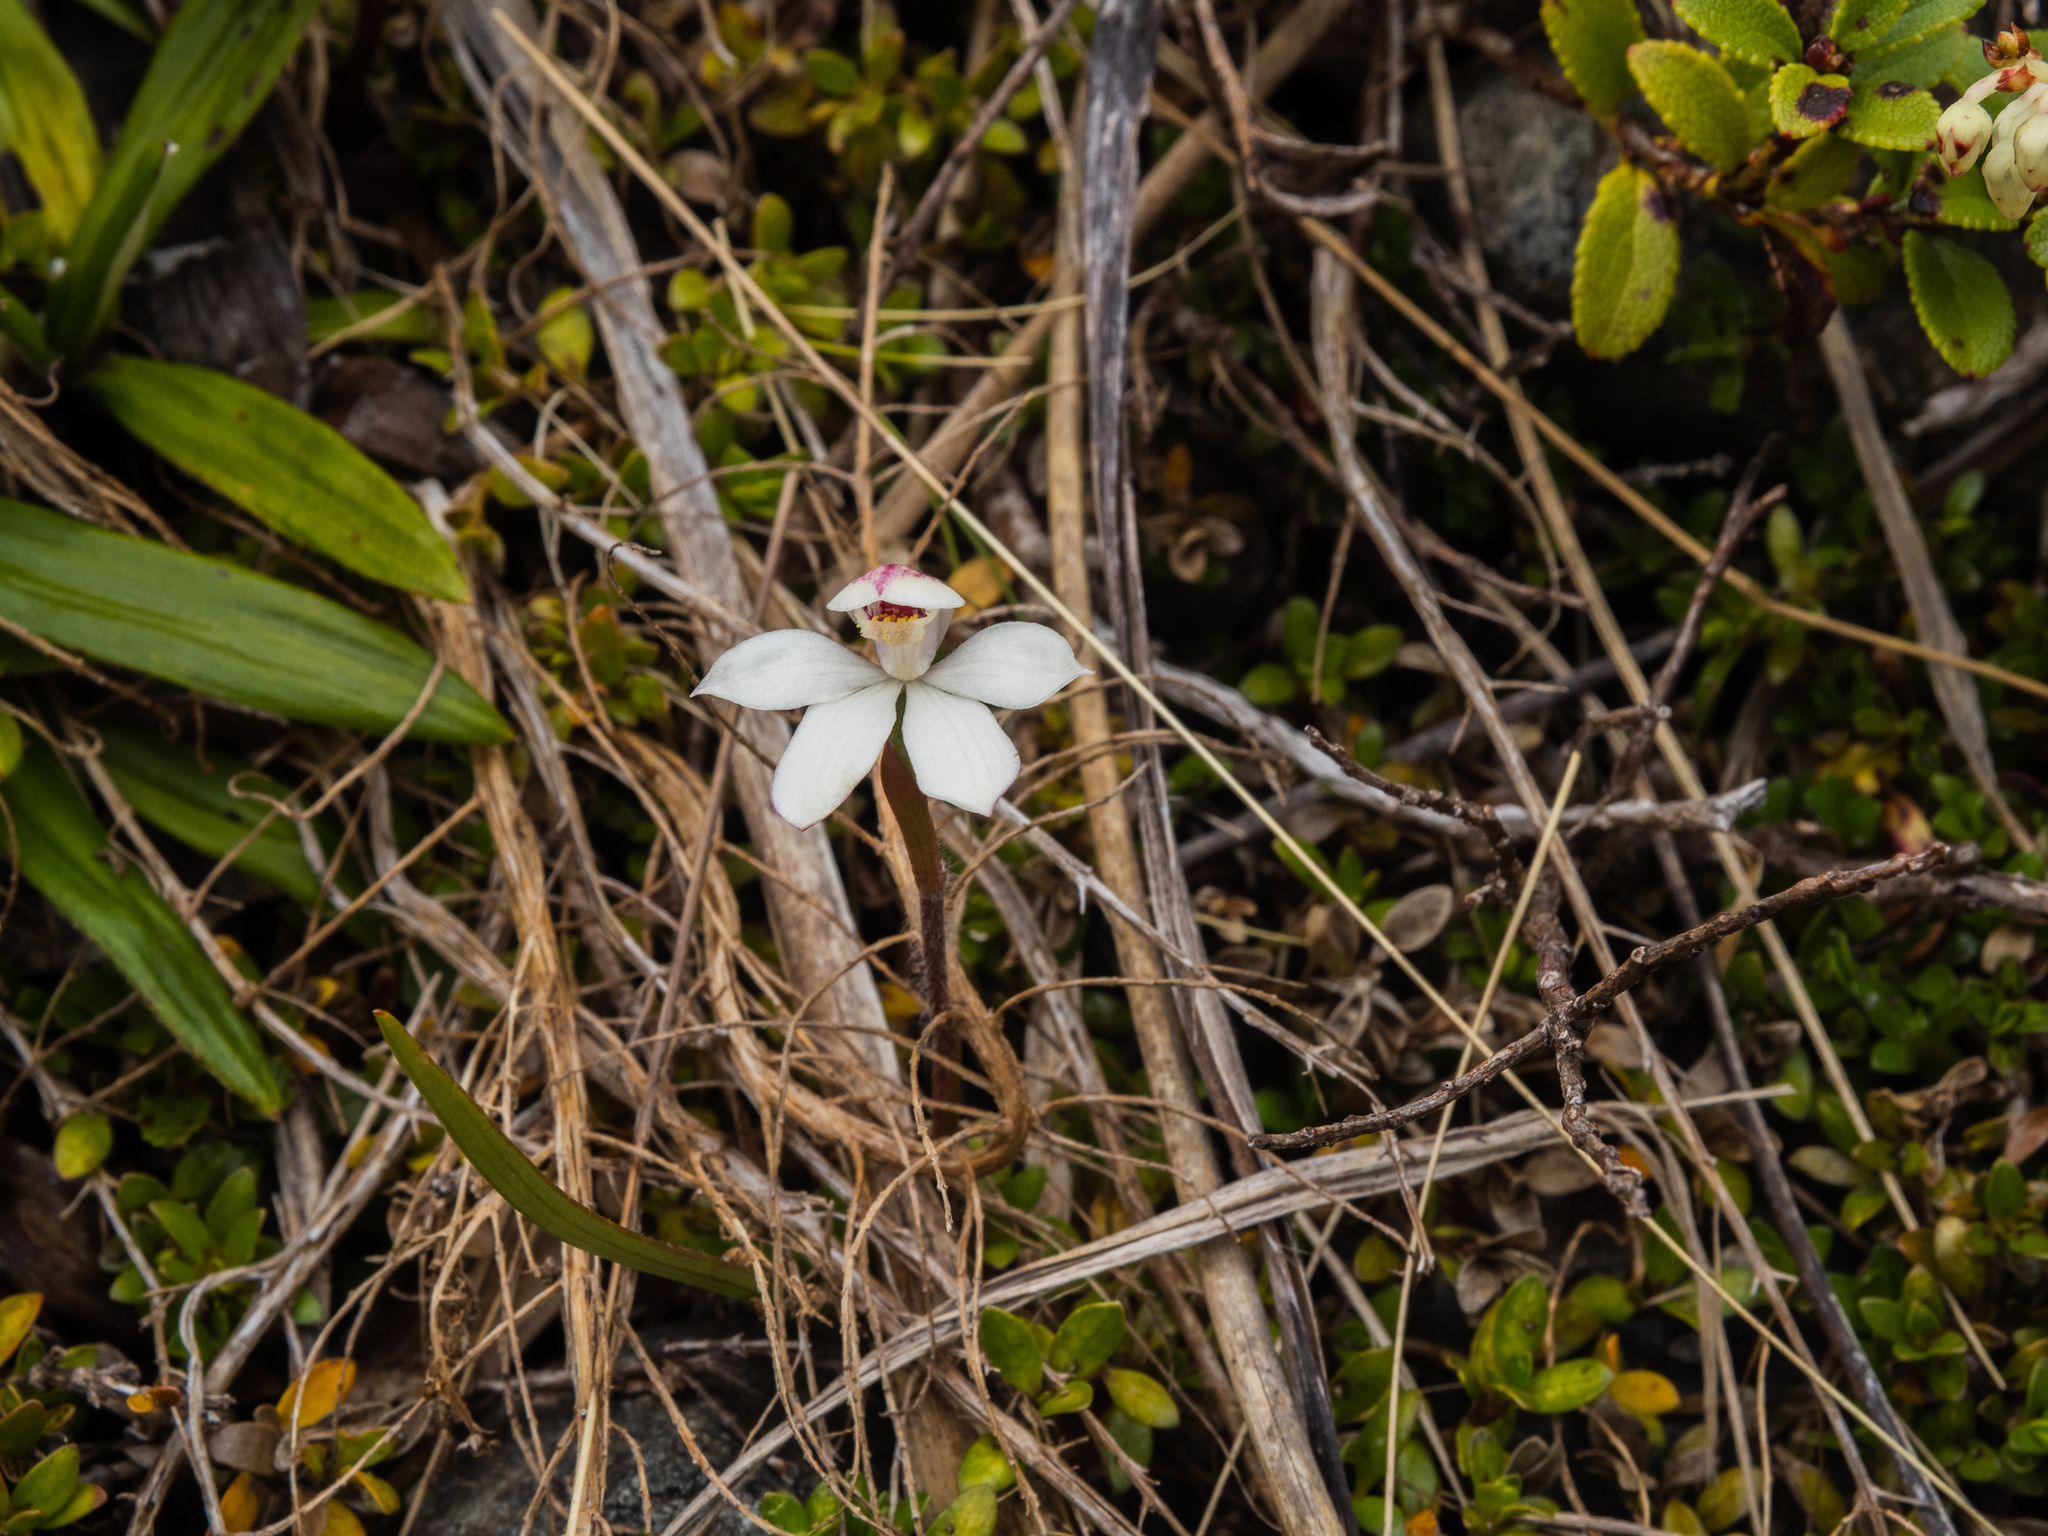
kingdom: Plantae
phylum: Tracheophyta
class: Liliopsida
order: Asparagales
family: Orchidaceae
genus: Caladenia
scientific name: Caladenia lyallii
